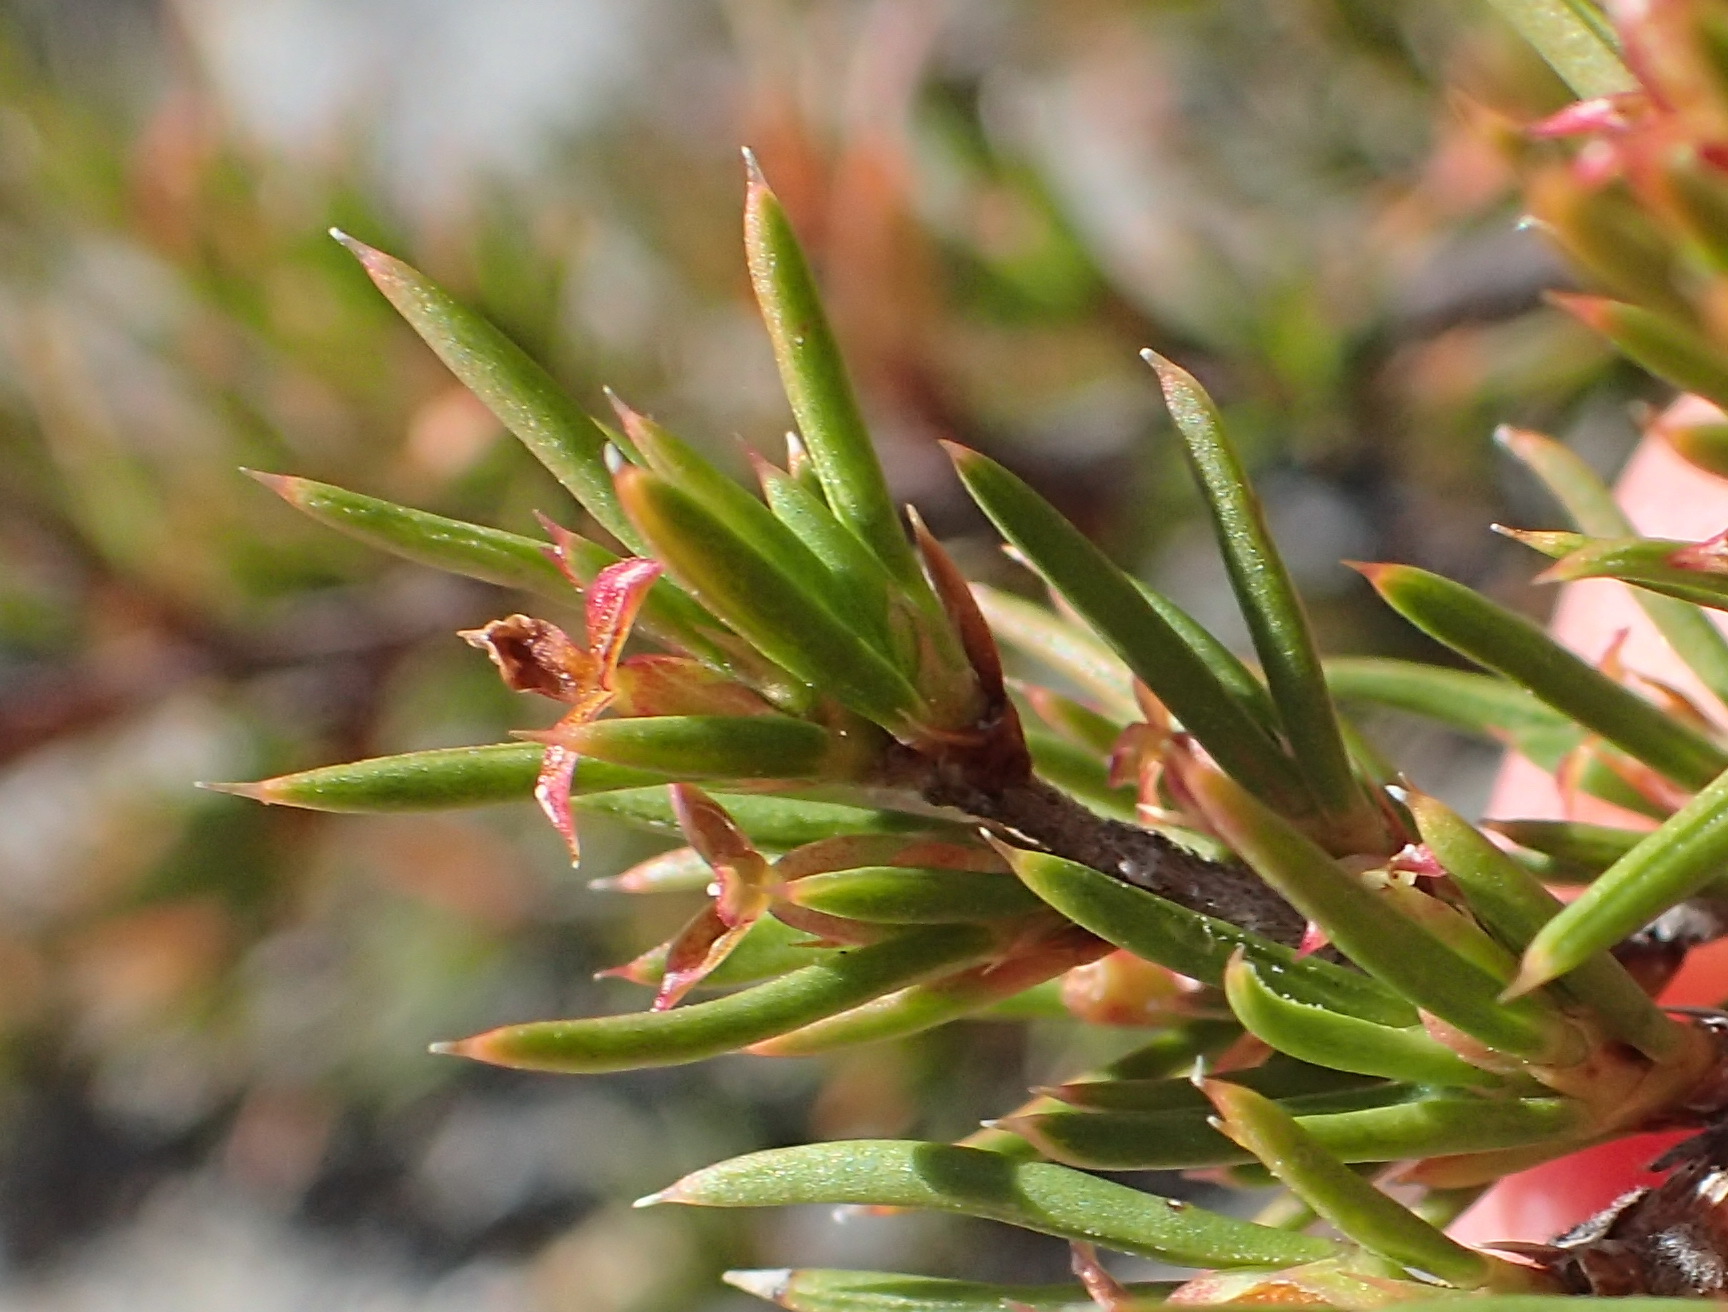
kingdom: Plantae
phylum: Tracheophyta
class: Magnoliopsida
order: Rosales
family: Rosaceae
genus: Cliffortia
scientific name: Cliffortia neglecta
